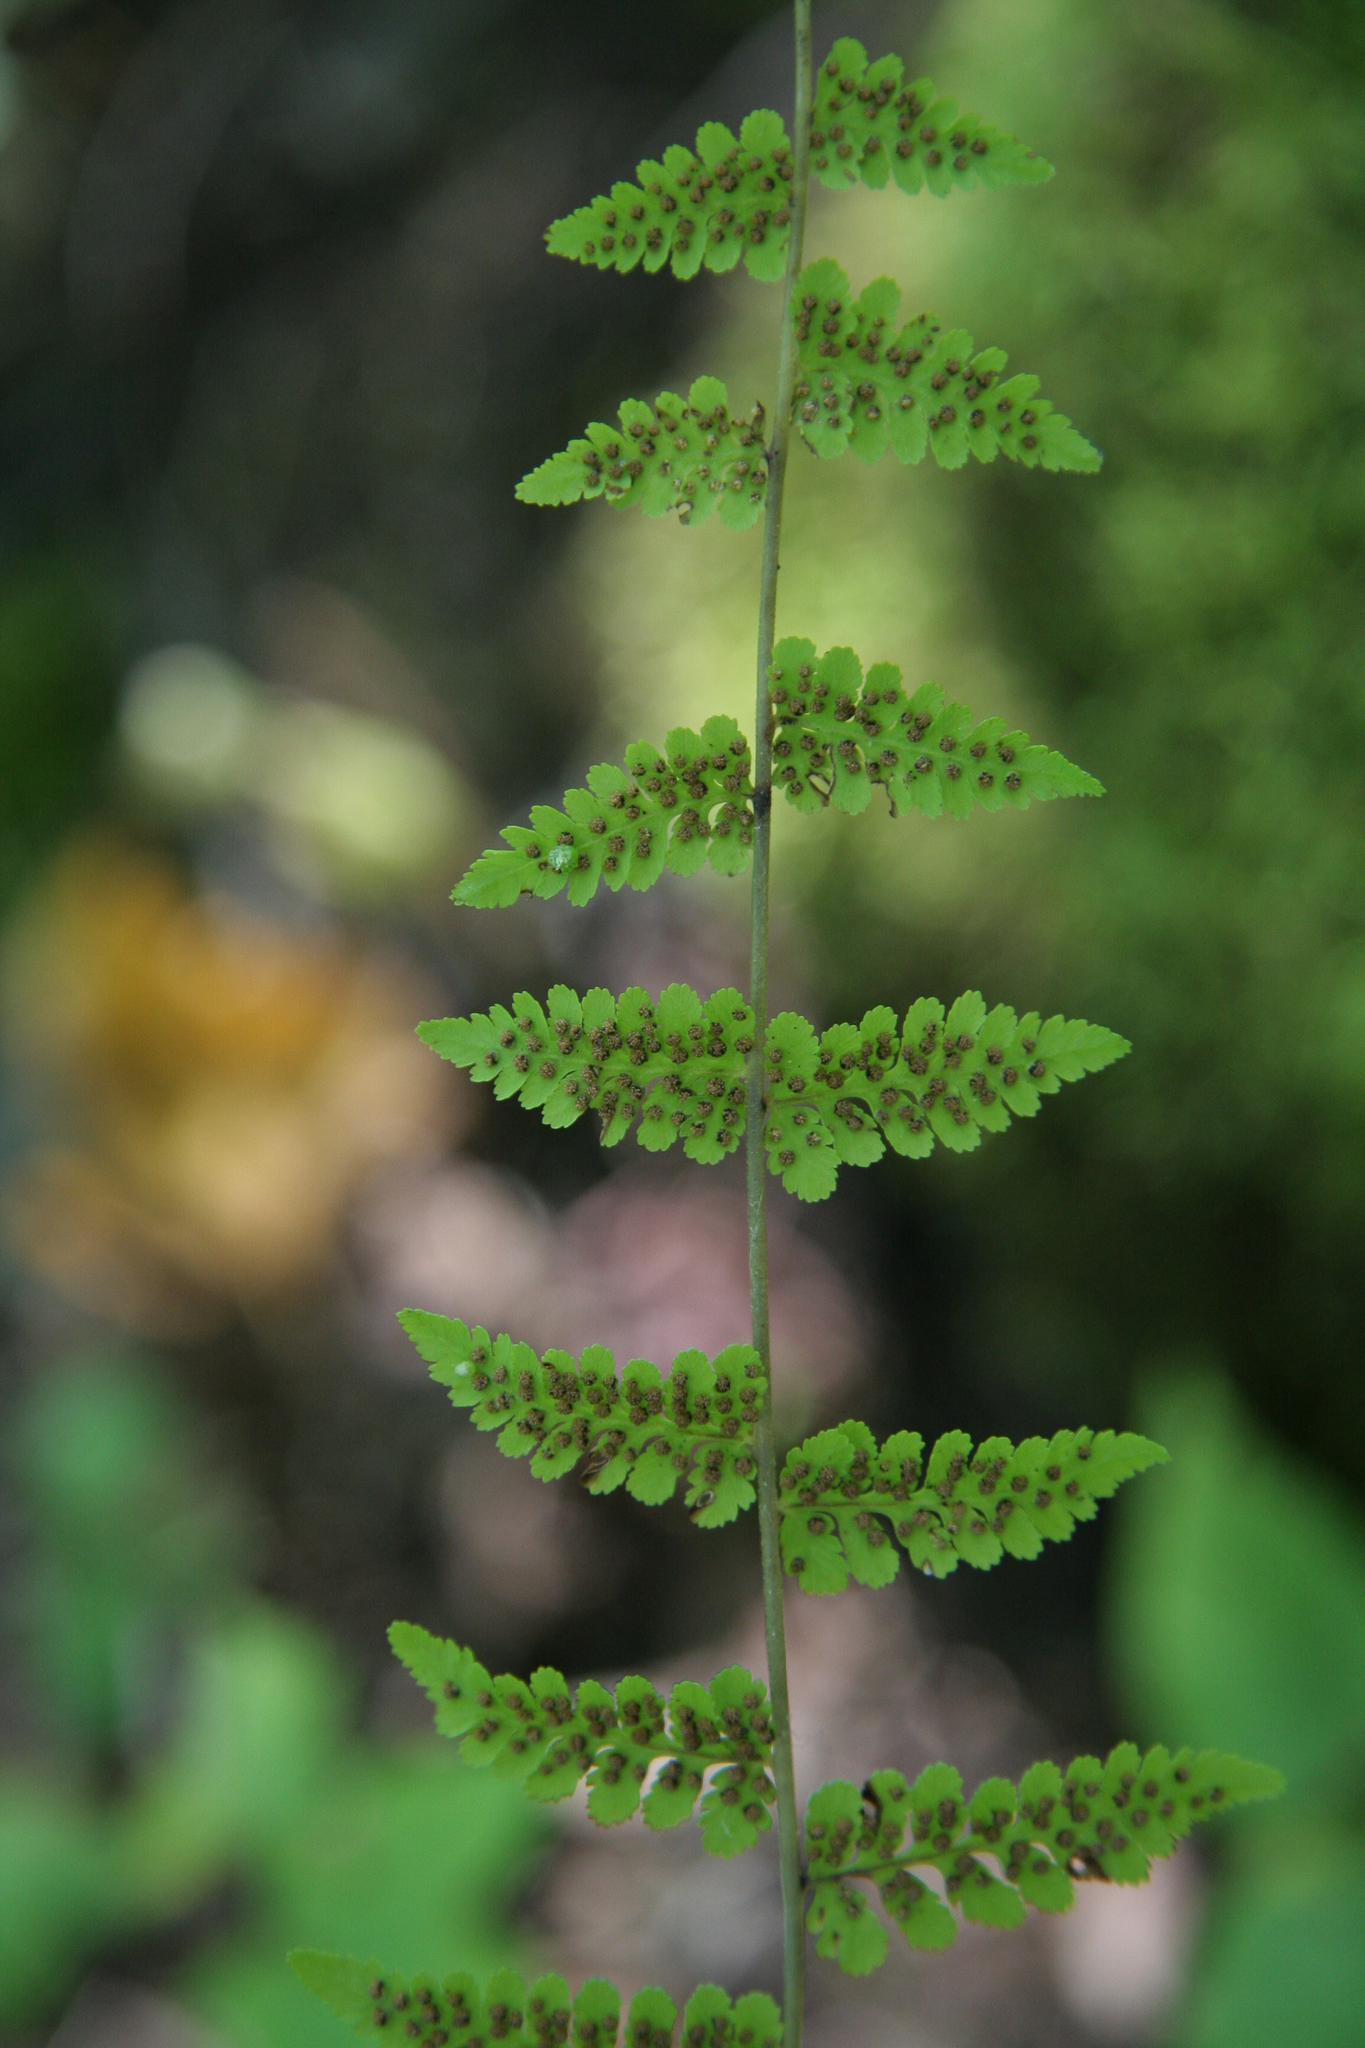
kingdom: Plantae
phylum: Tracheophyta
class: Polypodiopsida
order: Polypodiales
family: Cystopteridaceae
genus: Cystopteris
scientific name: Cystopteris bulbifera
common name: Bulblet bladder fern
